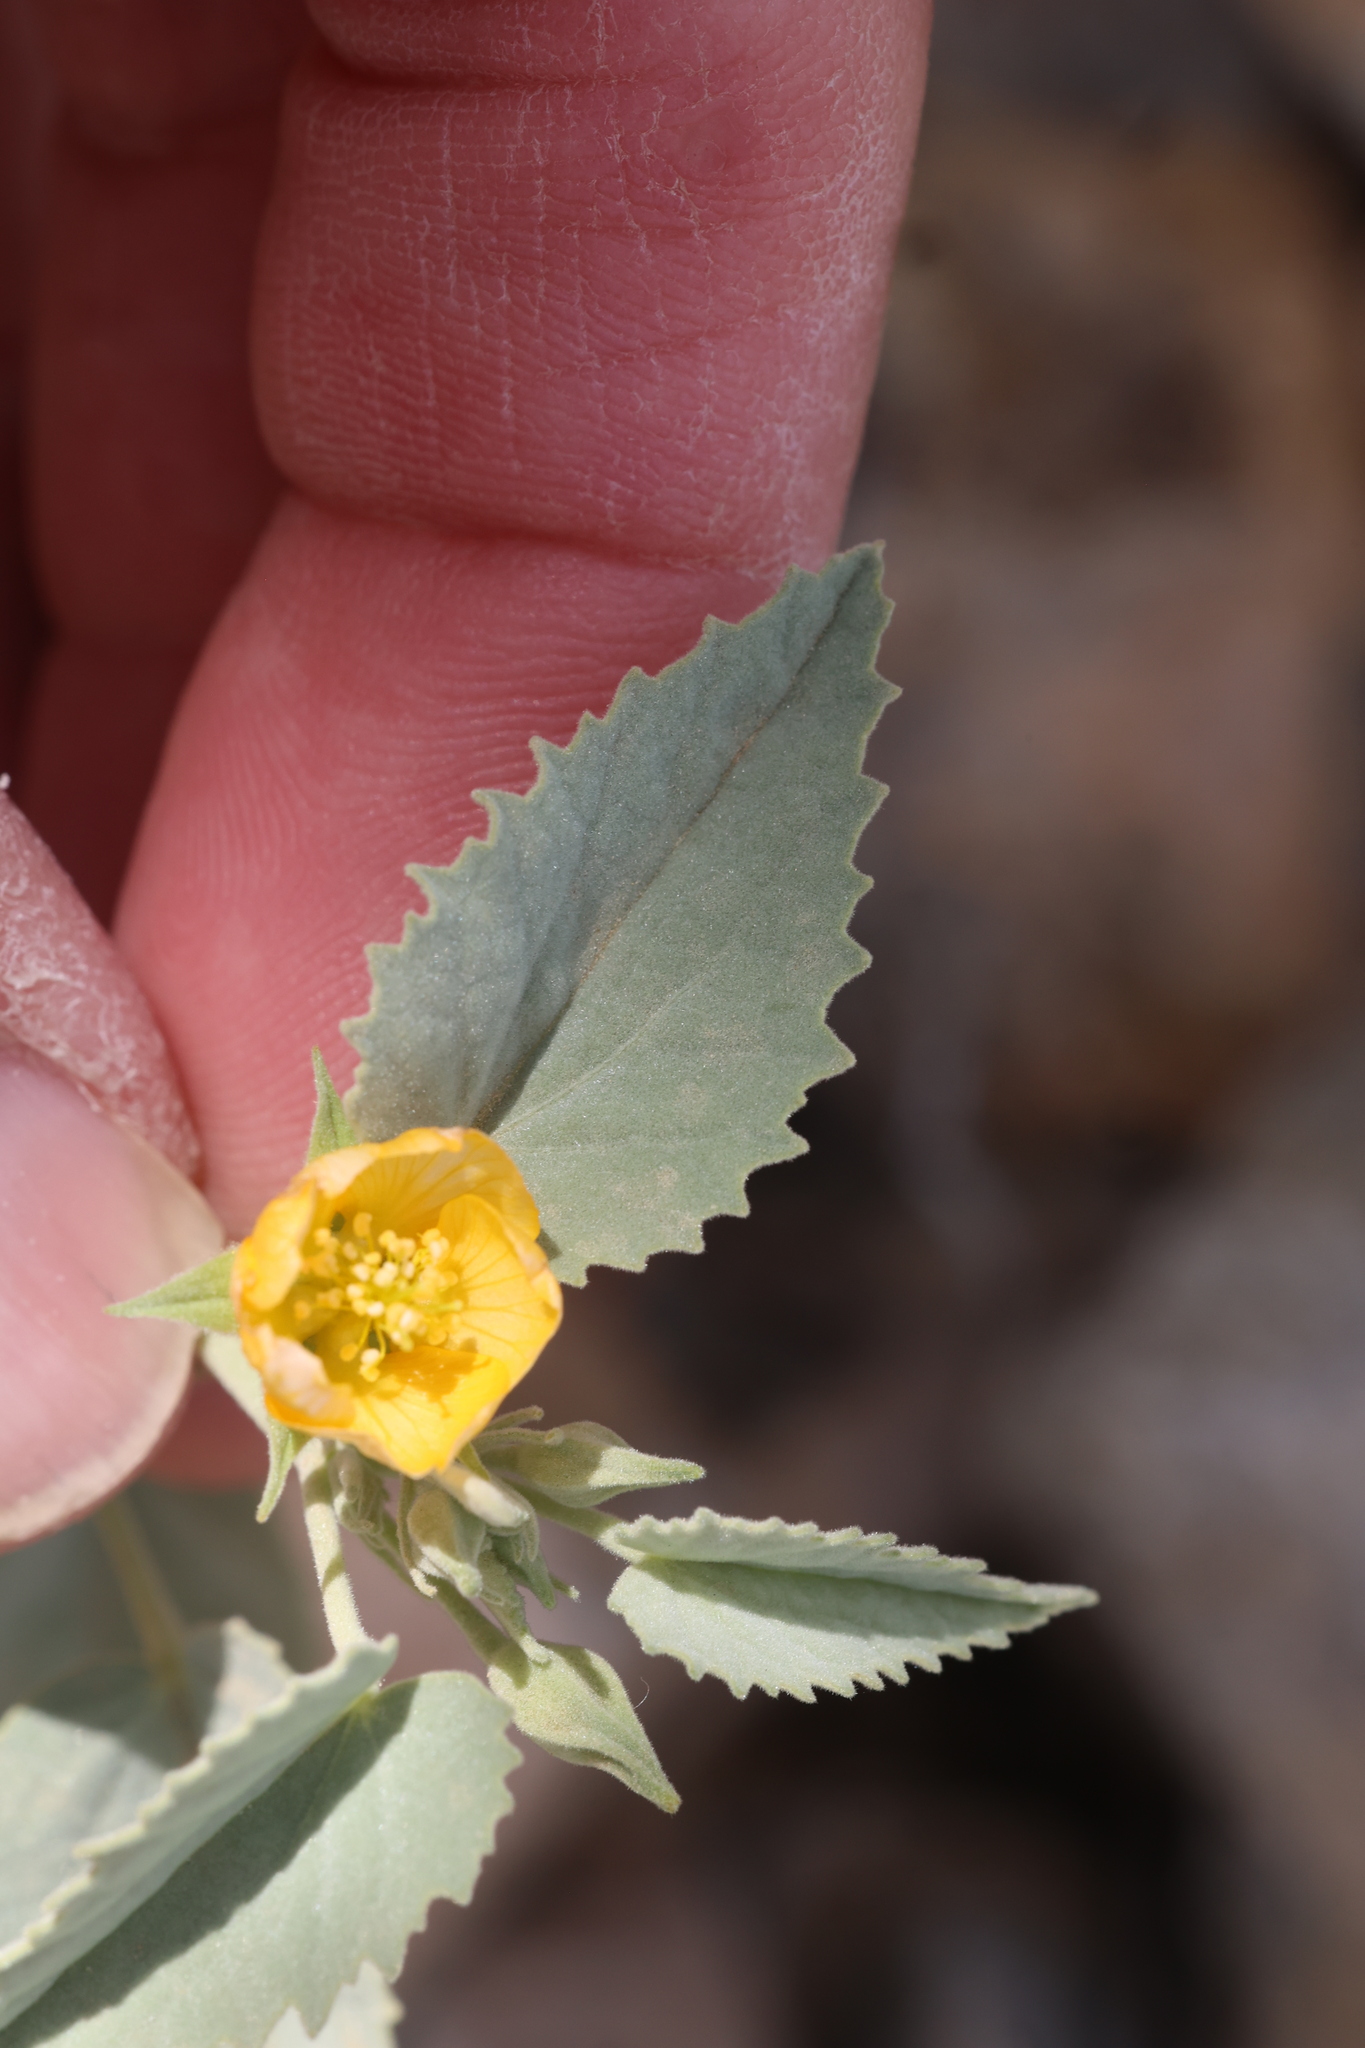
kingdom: Plantae
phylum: Tracheophyta
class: Magnoliopsida
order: Malvales
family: Malvaceae
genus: Abutilon
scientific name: Abutilon malacum
